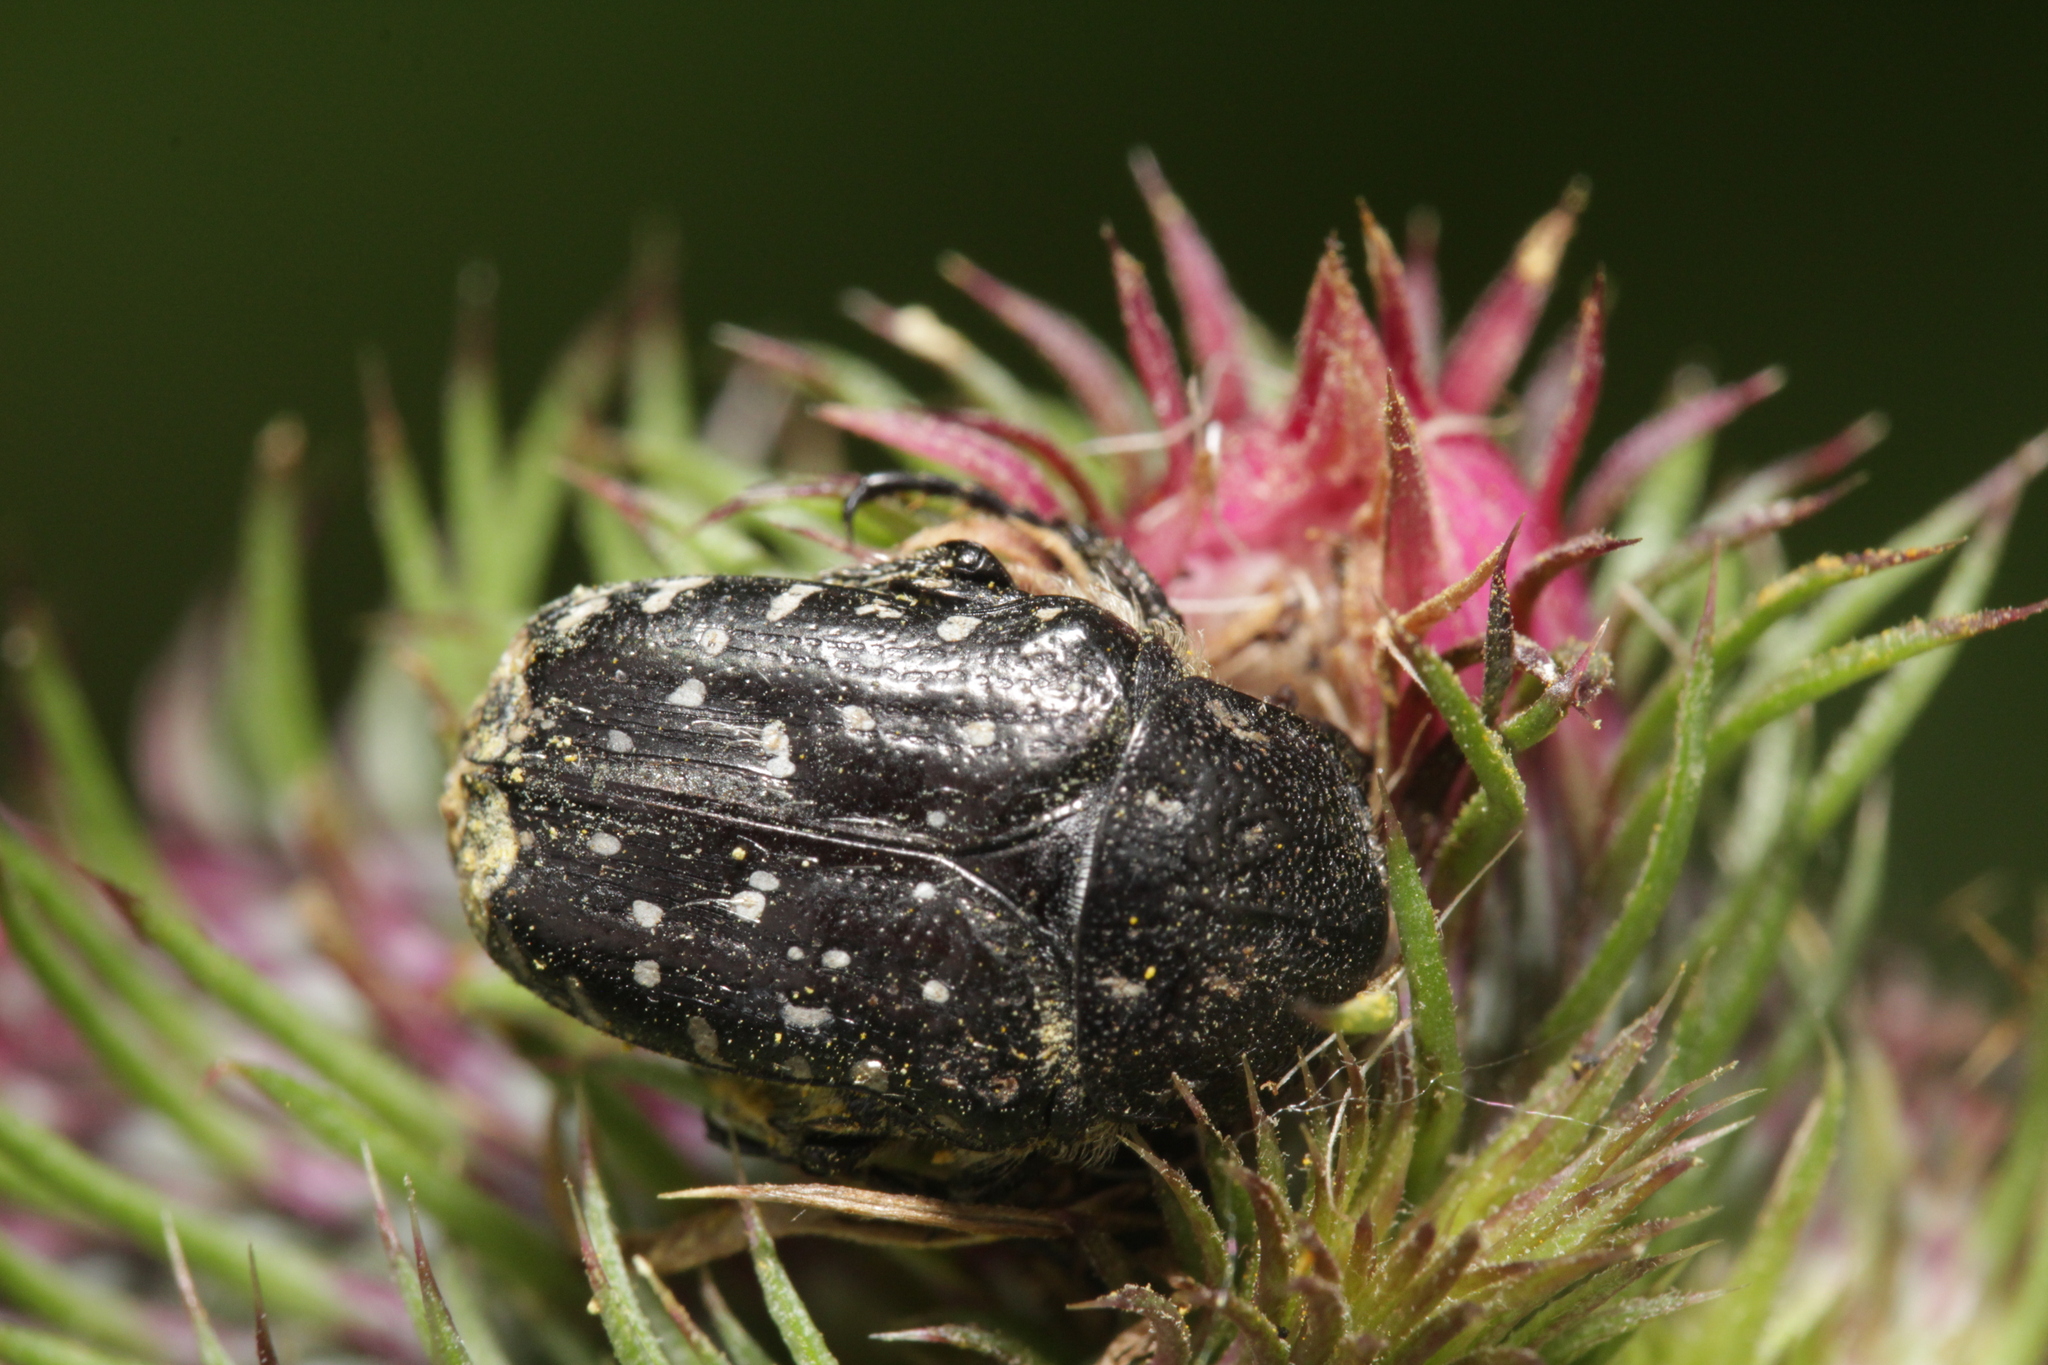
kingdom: Animalia
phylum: Arthropoda
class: Insecta
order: Coleoptera
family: Scarabaeidae
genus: Oxythyrea
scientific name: Oxythyrea funesta
